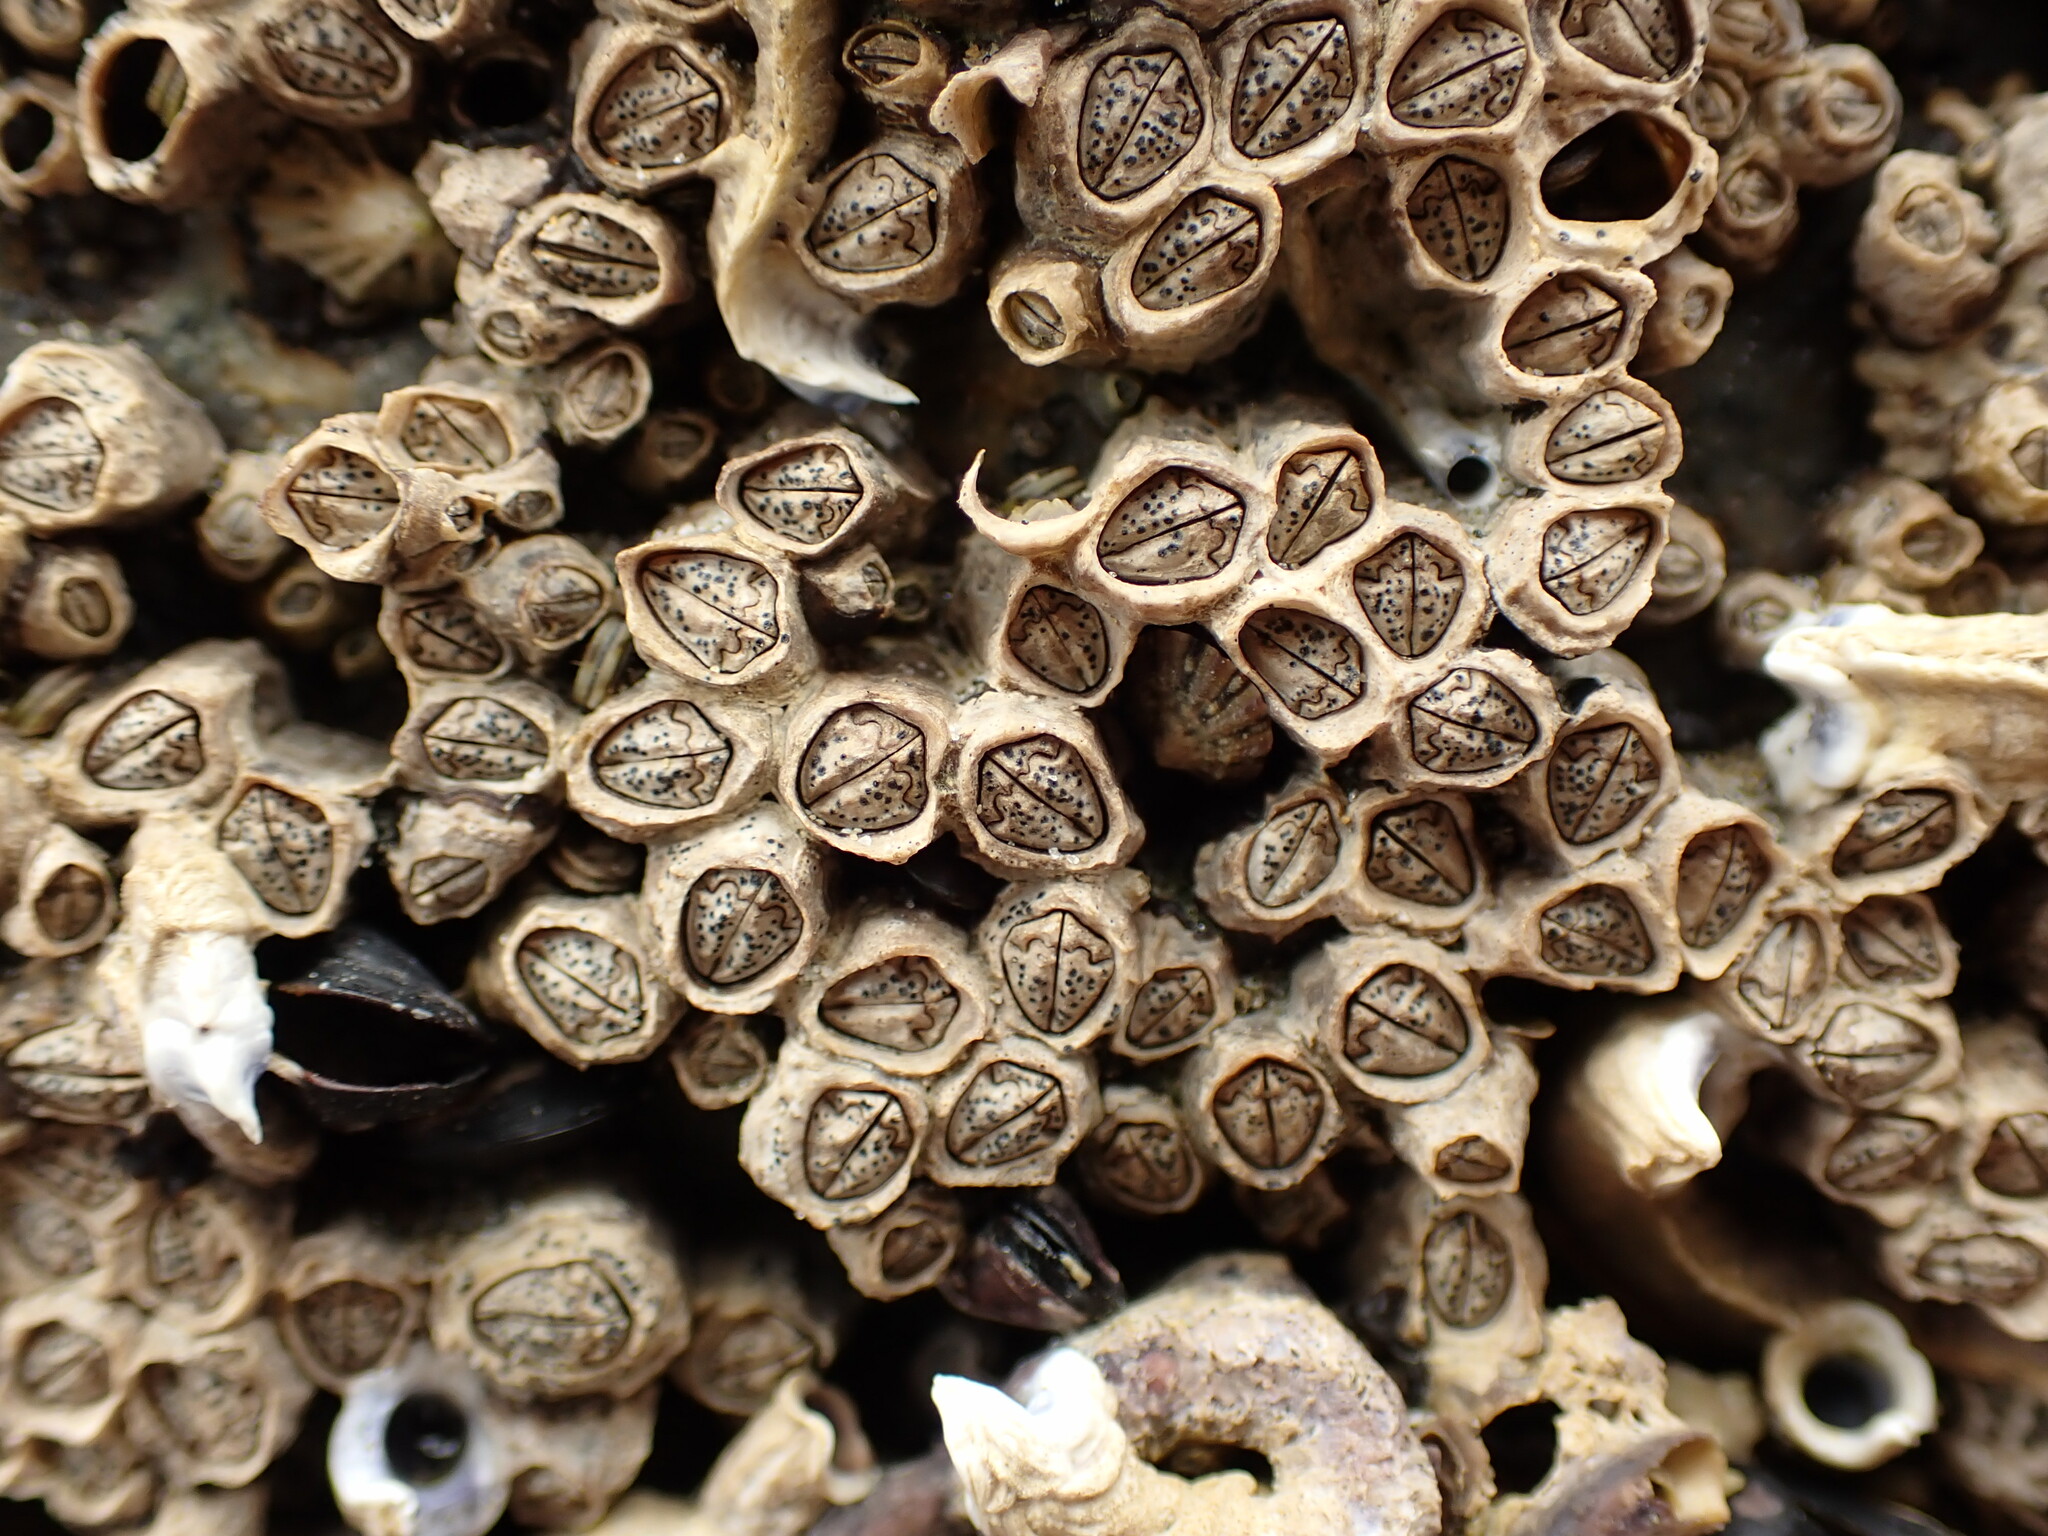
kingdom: Animalia
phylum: Arthropoda
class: Maxillopoda
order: Sessilia
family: Chthamalidae
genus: Chamaesipho
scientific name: Chamaesipho columna
